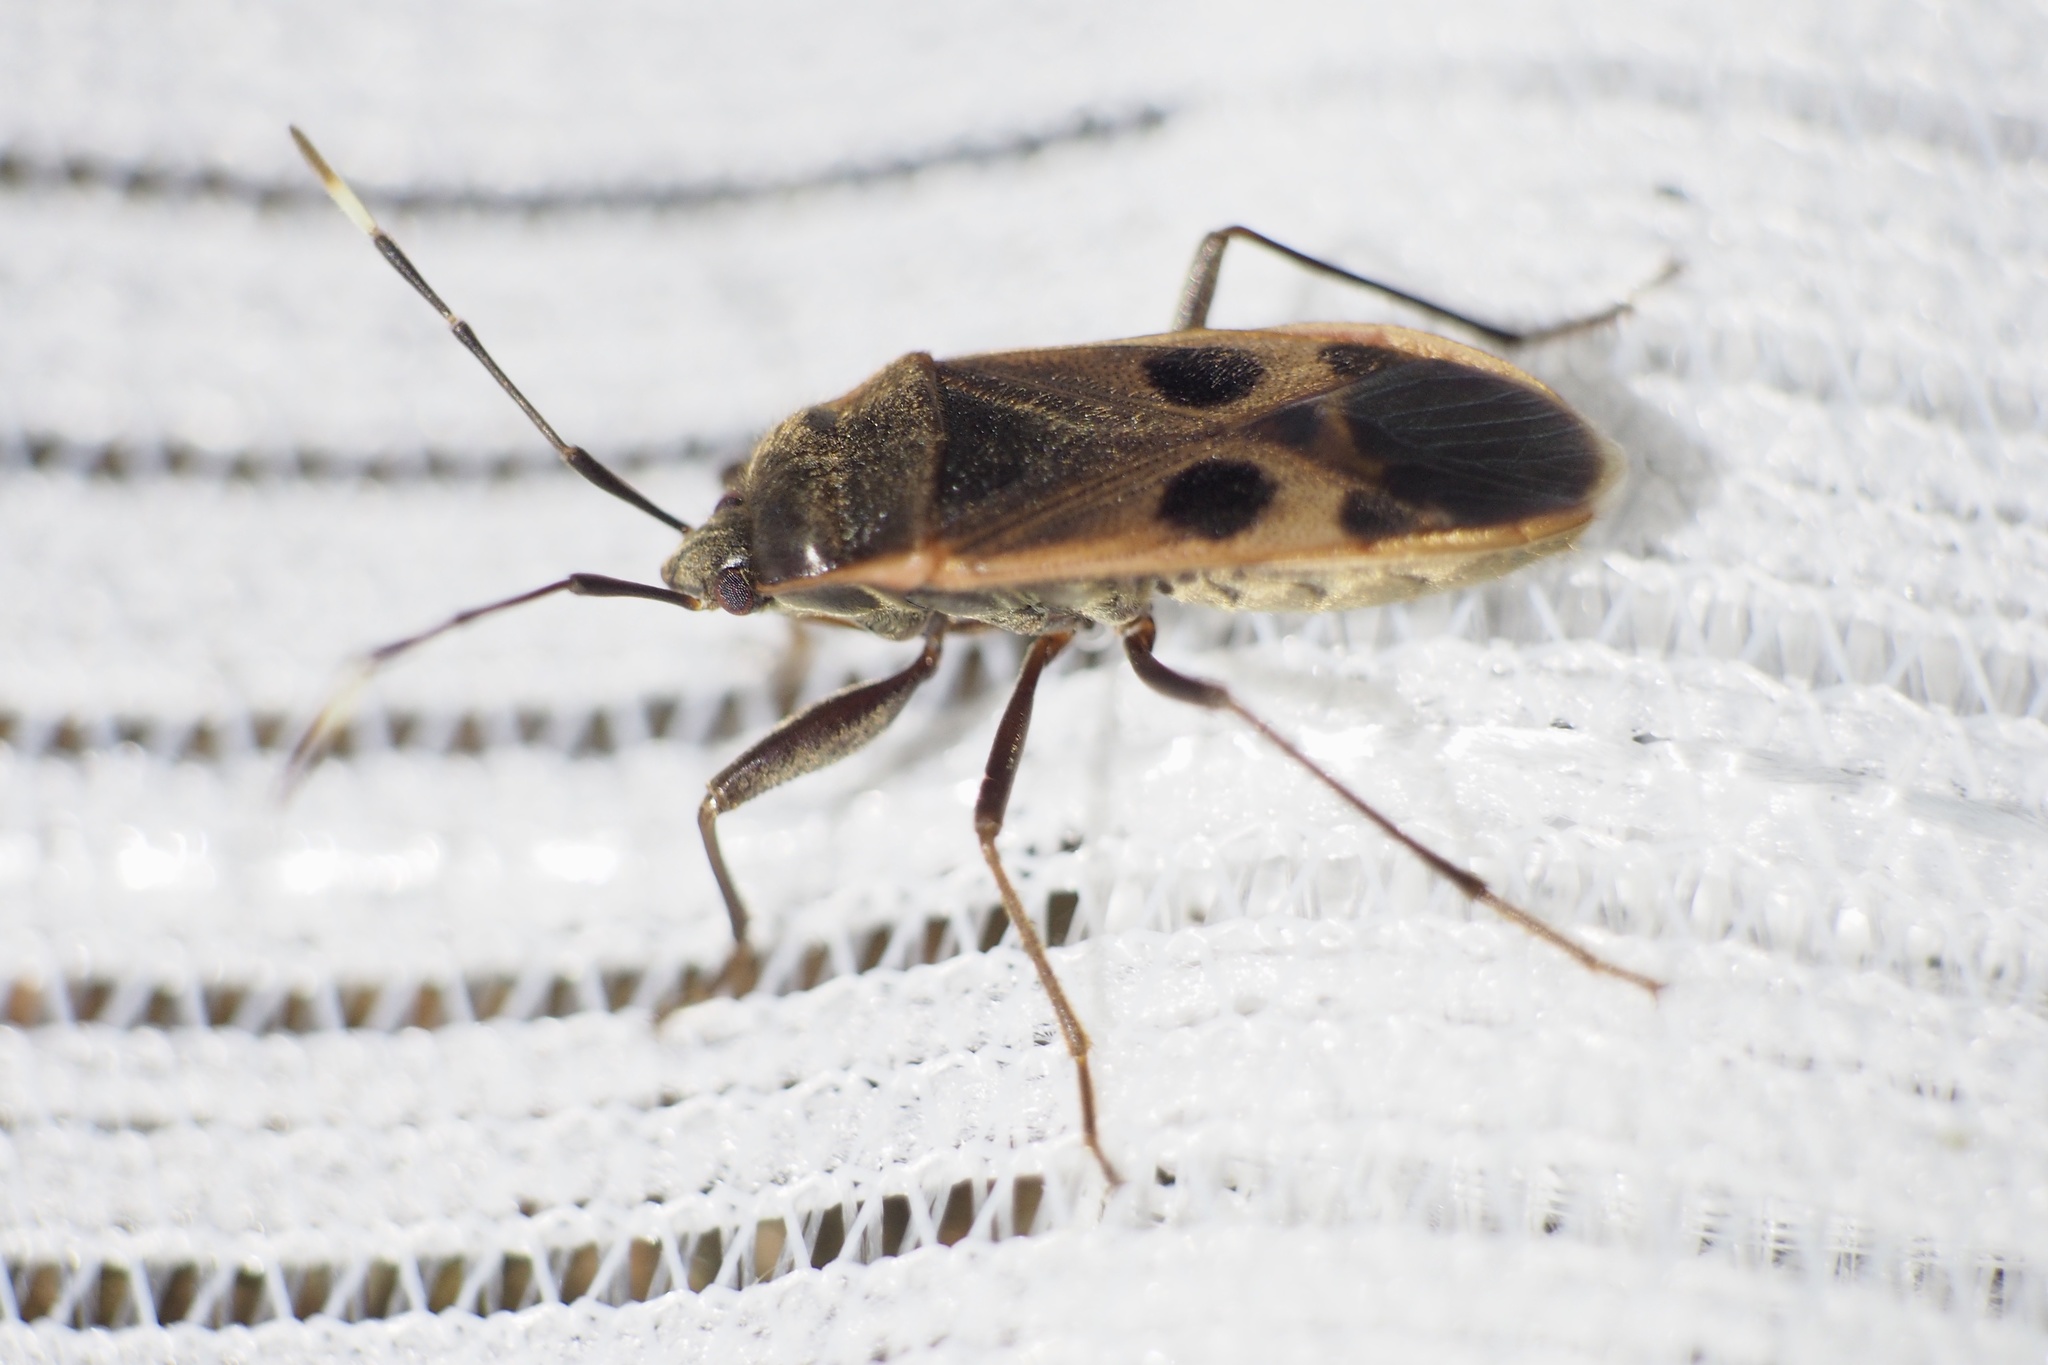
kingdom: Animalia
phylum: Arthropoda
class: Insecta
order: Hemiptera
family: Largidae
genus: Physopelta
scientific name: Physopelta parviceps
